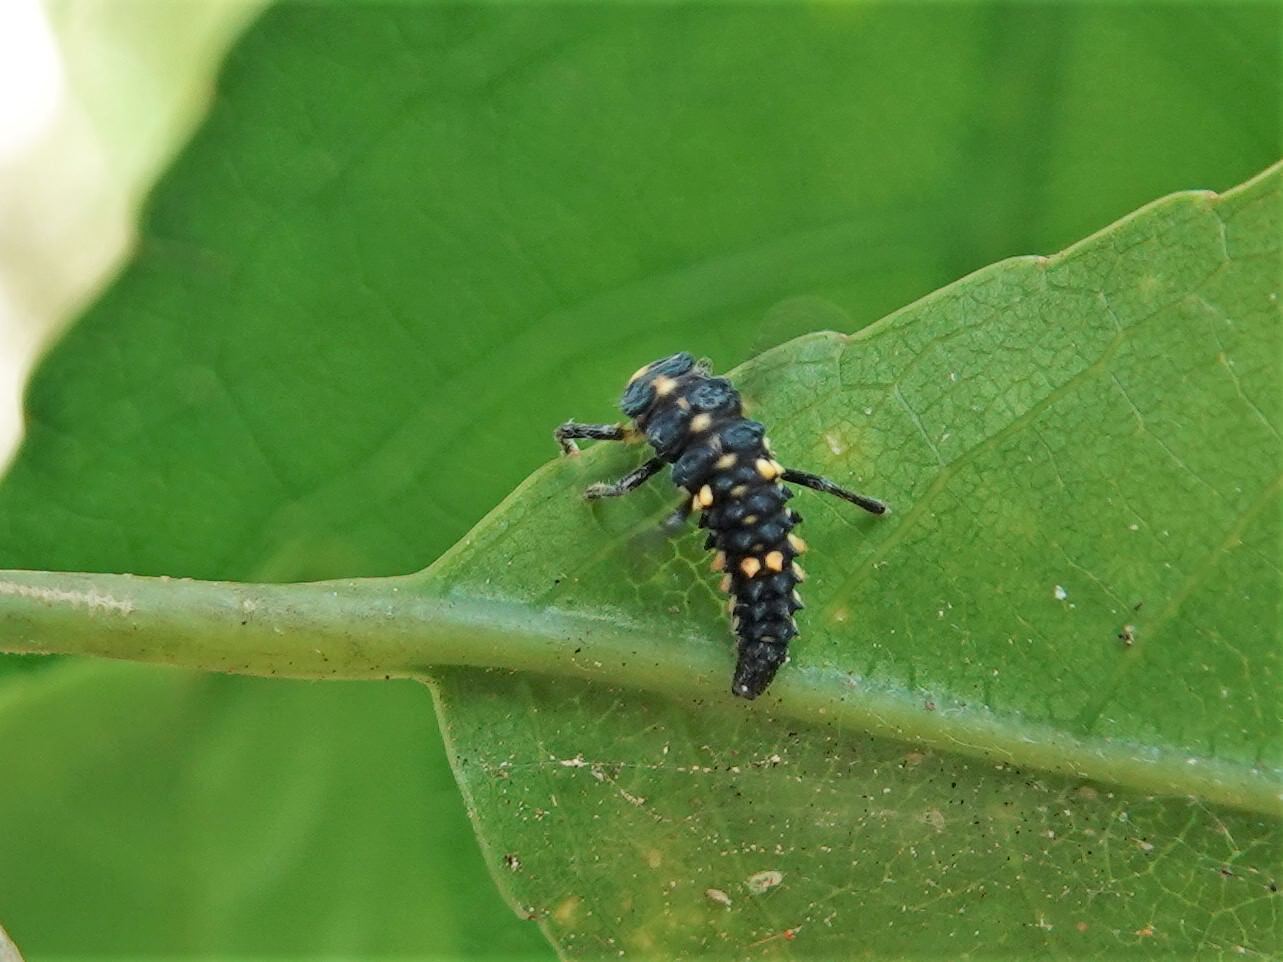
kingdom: Animalia
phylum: Arthropoda
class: Insecta
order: Coleoptera
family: Coccinellidae
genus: Cleobora
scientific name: Cleobora
